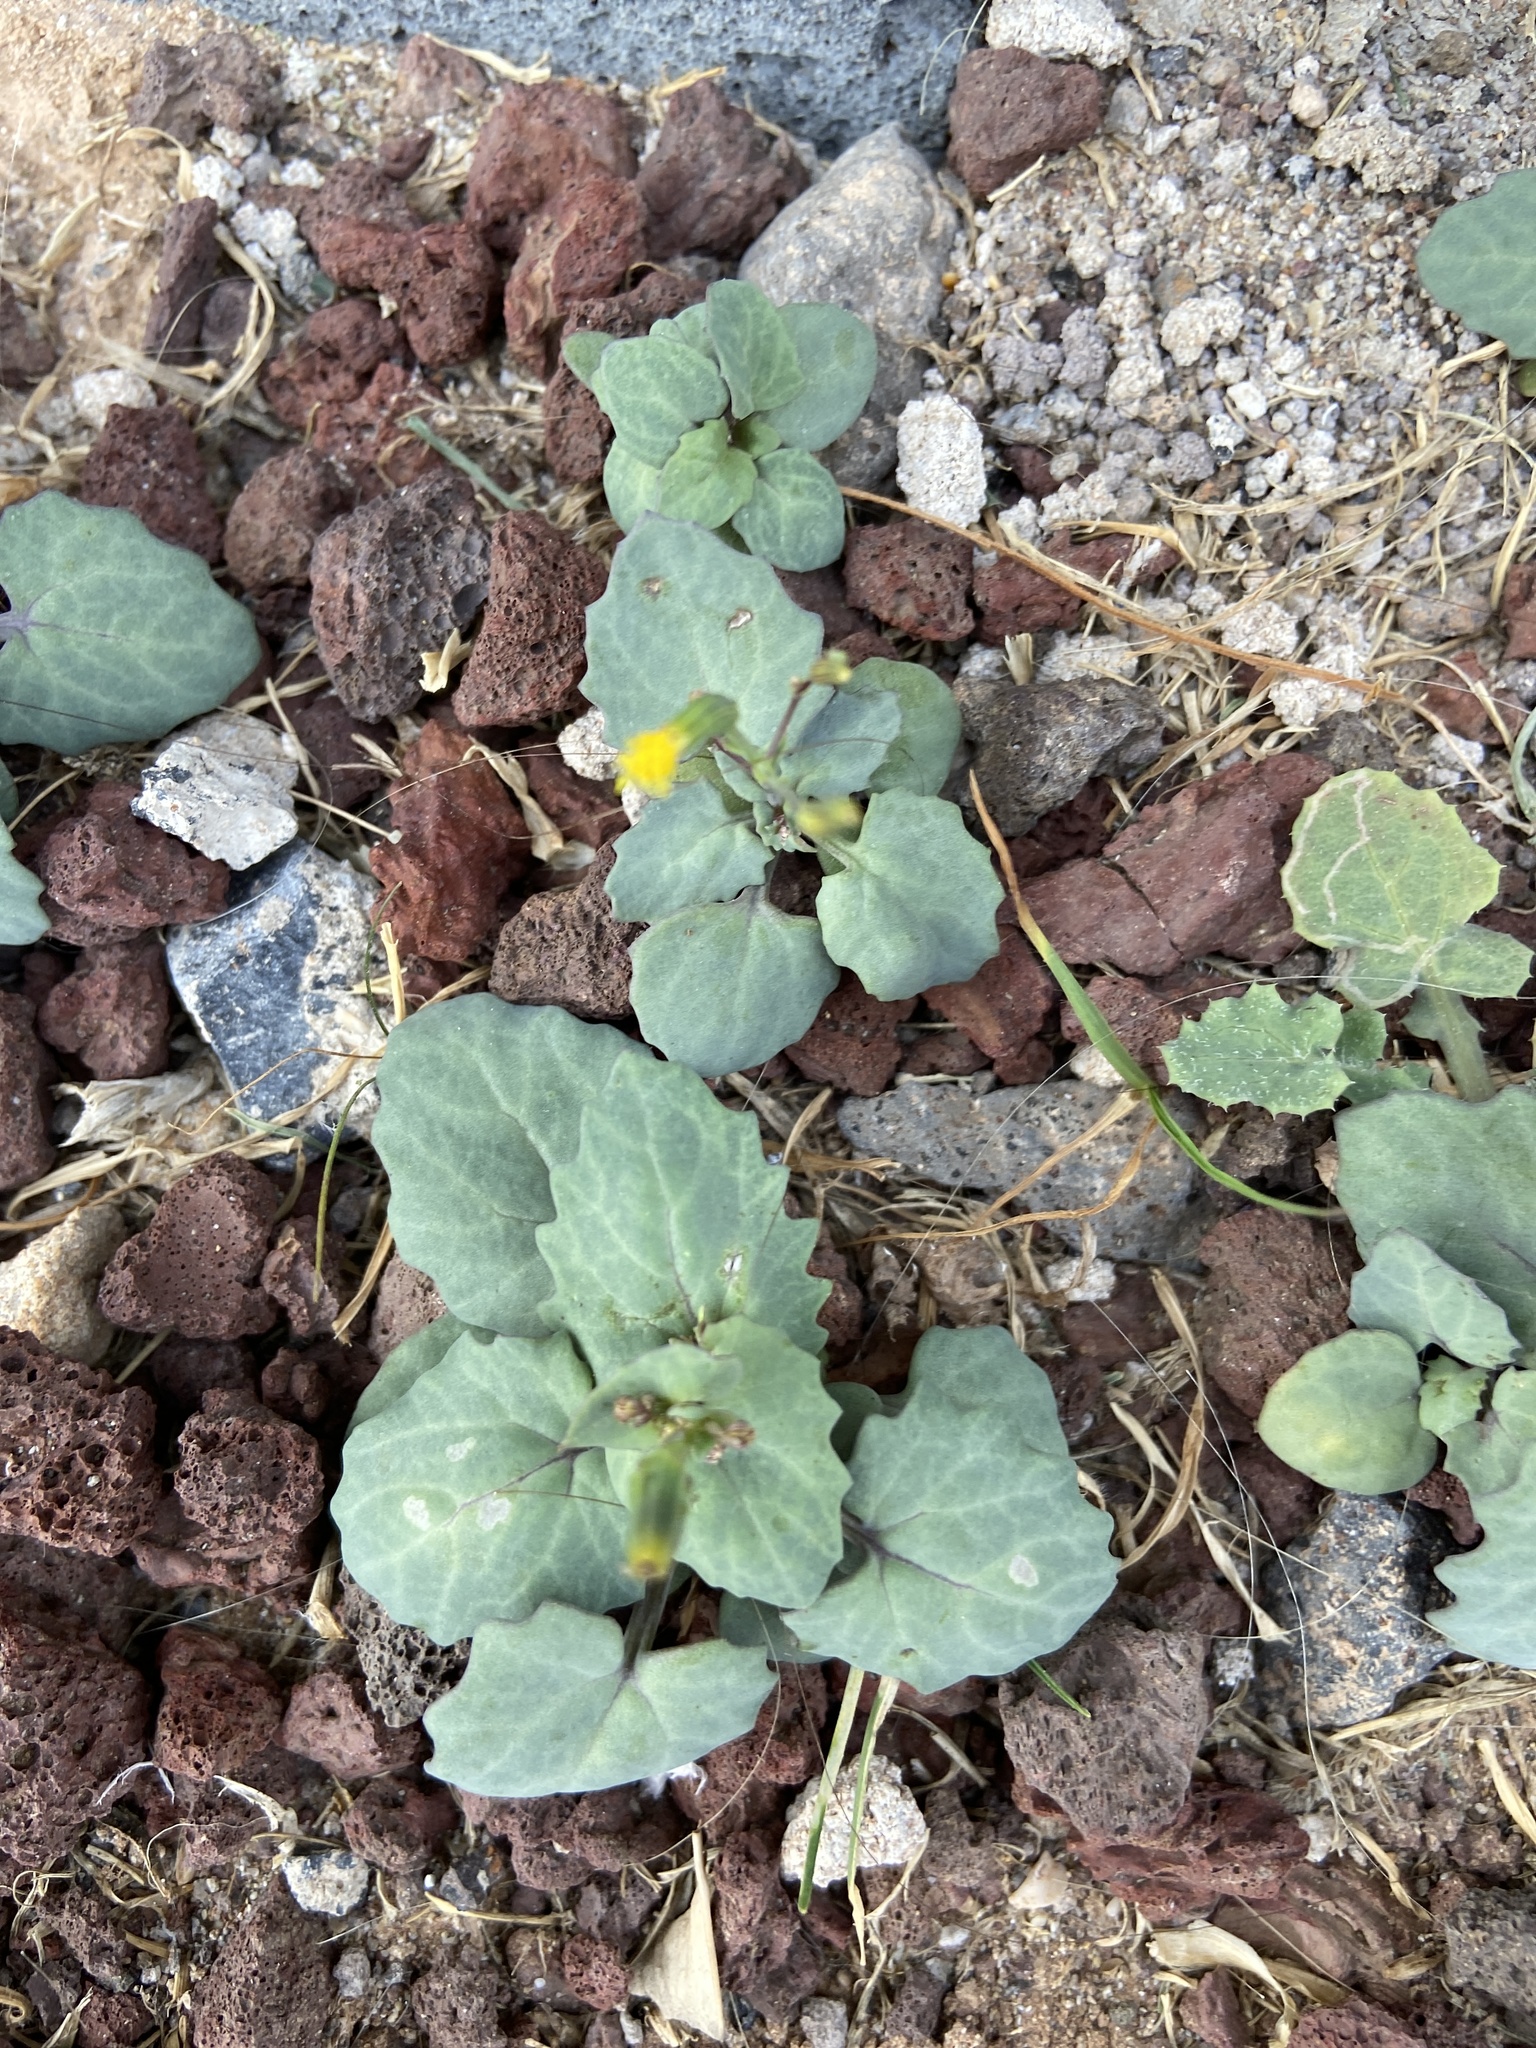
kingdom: Plantae
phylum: Tracheophyta
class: Magnoliopsida
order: Asterales
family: Asteraceae
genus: Senecio
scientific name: Senecio flavus
